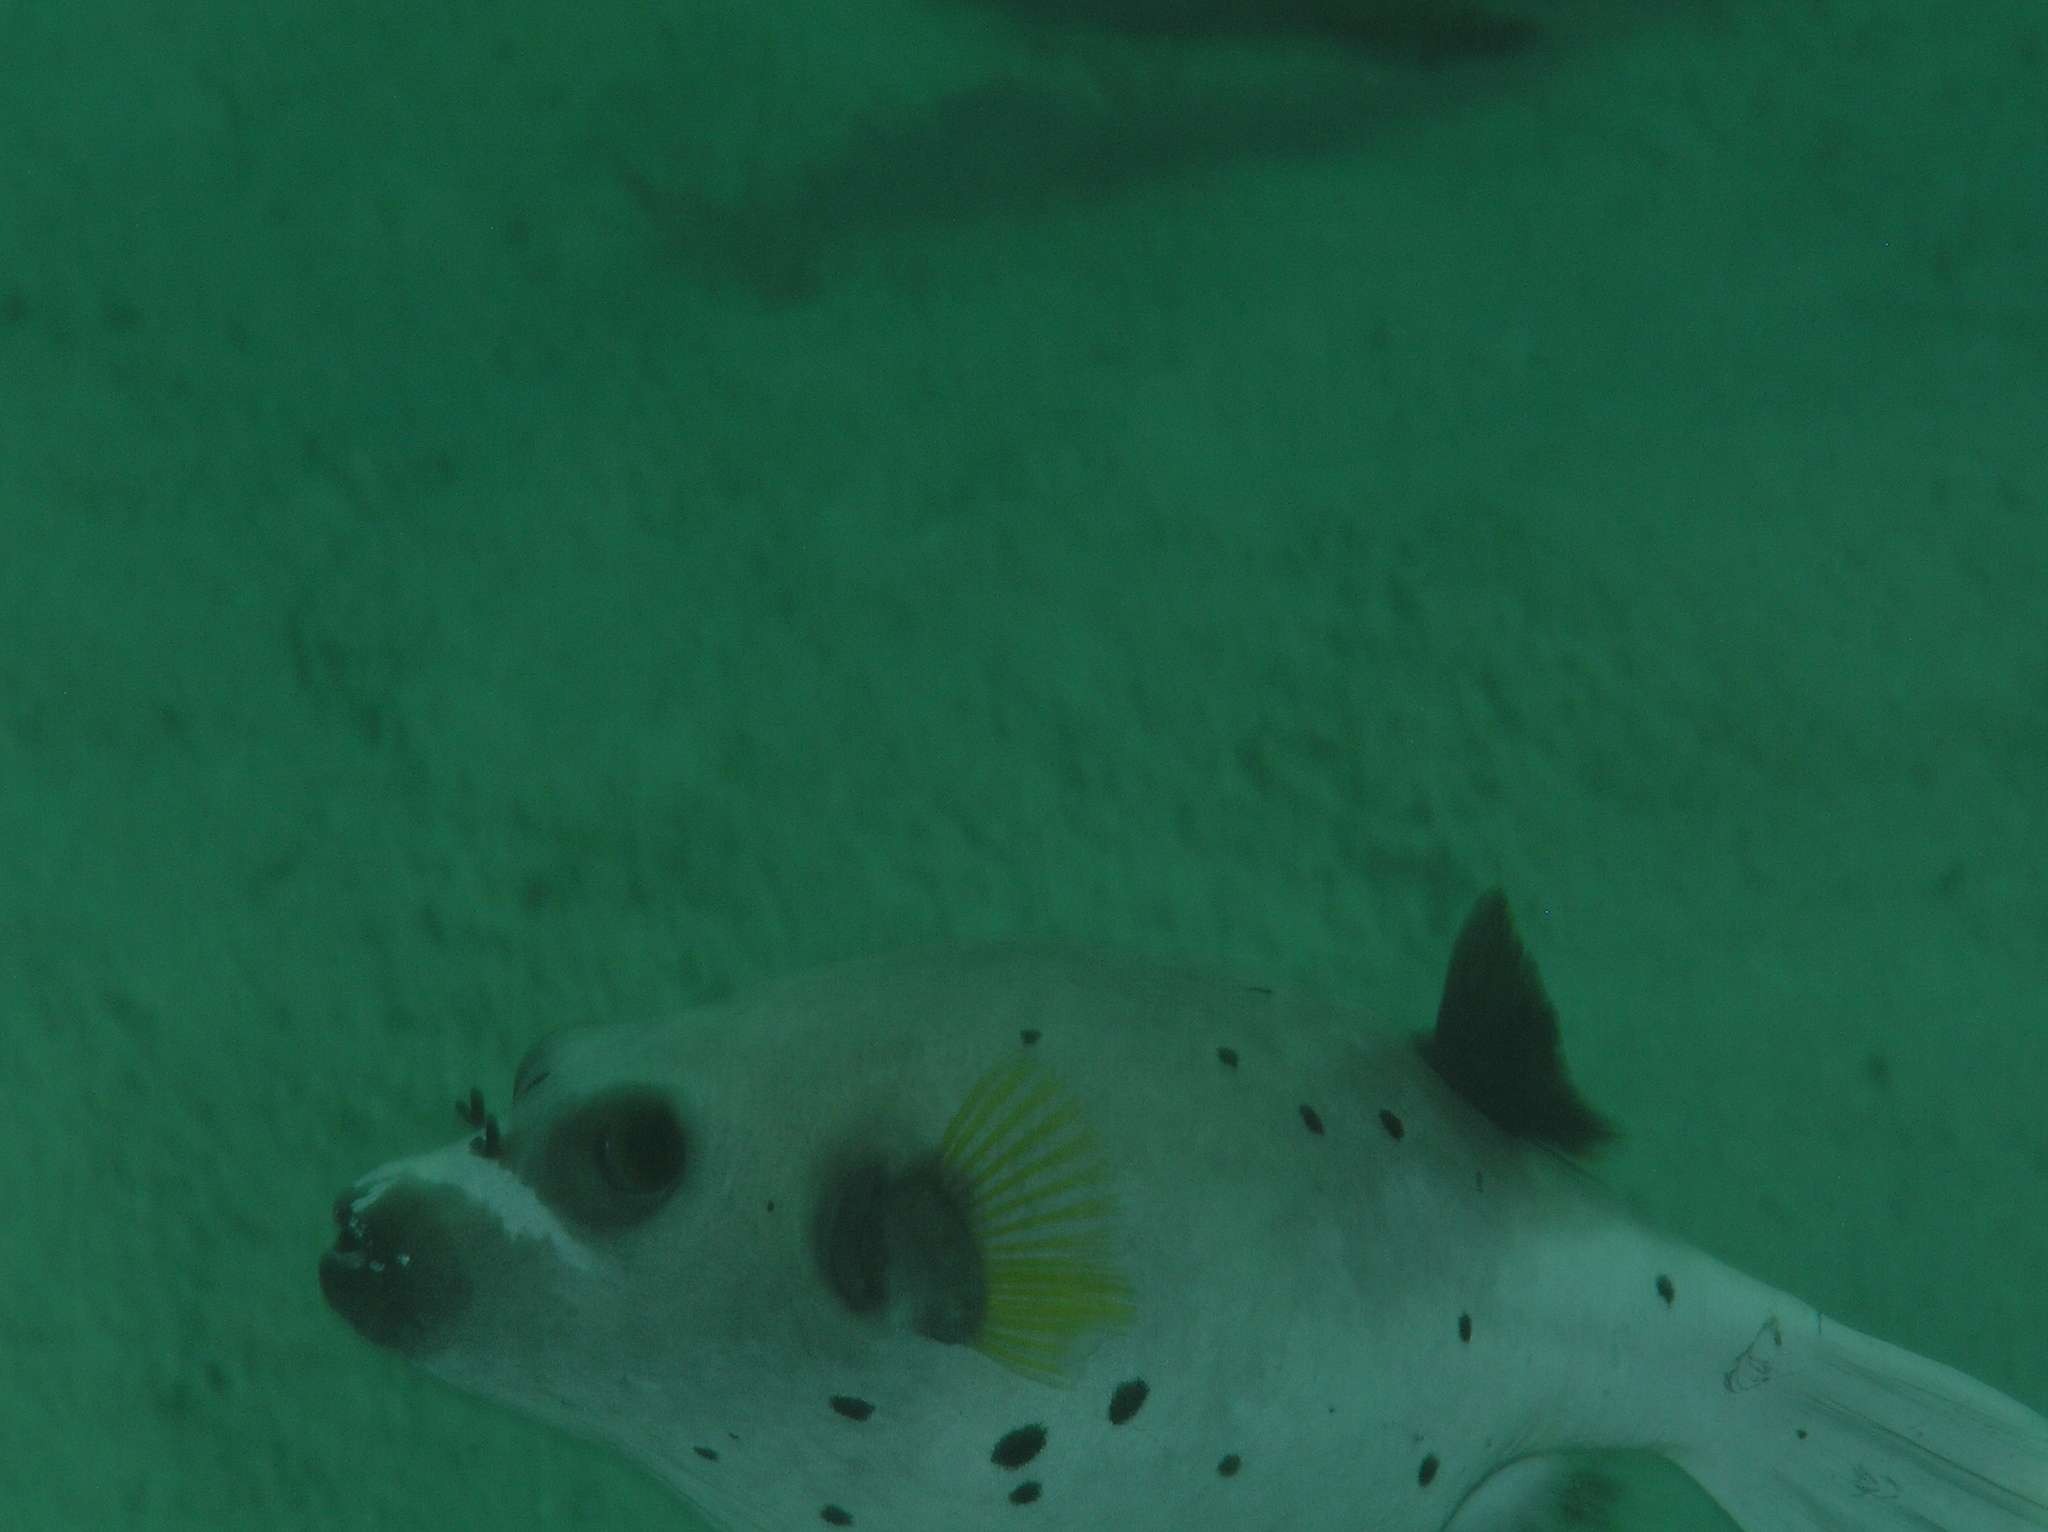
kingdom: Animalia
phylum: Chordata
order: Tetraodontiformes
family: Tetraodontidae
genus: Arothron
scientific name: Arothron nigropunctatus
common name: Black spotted blow fish
